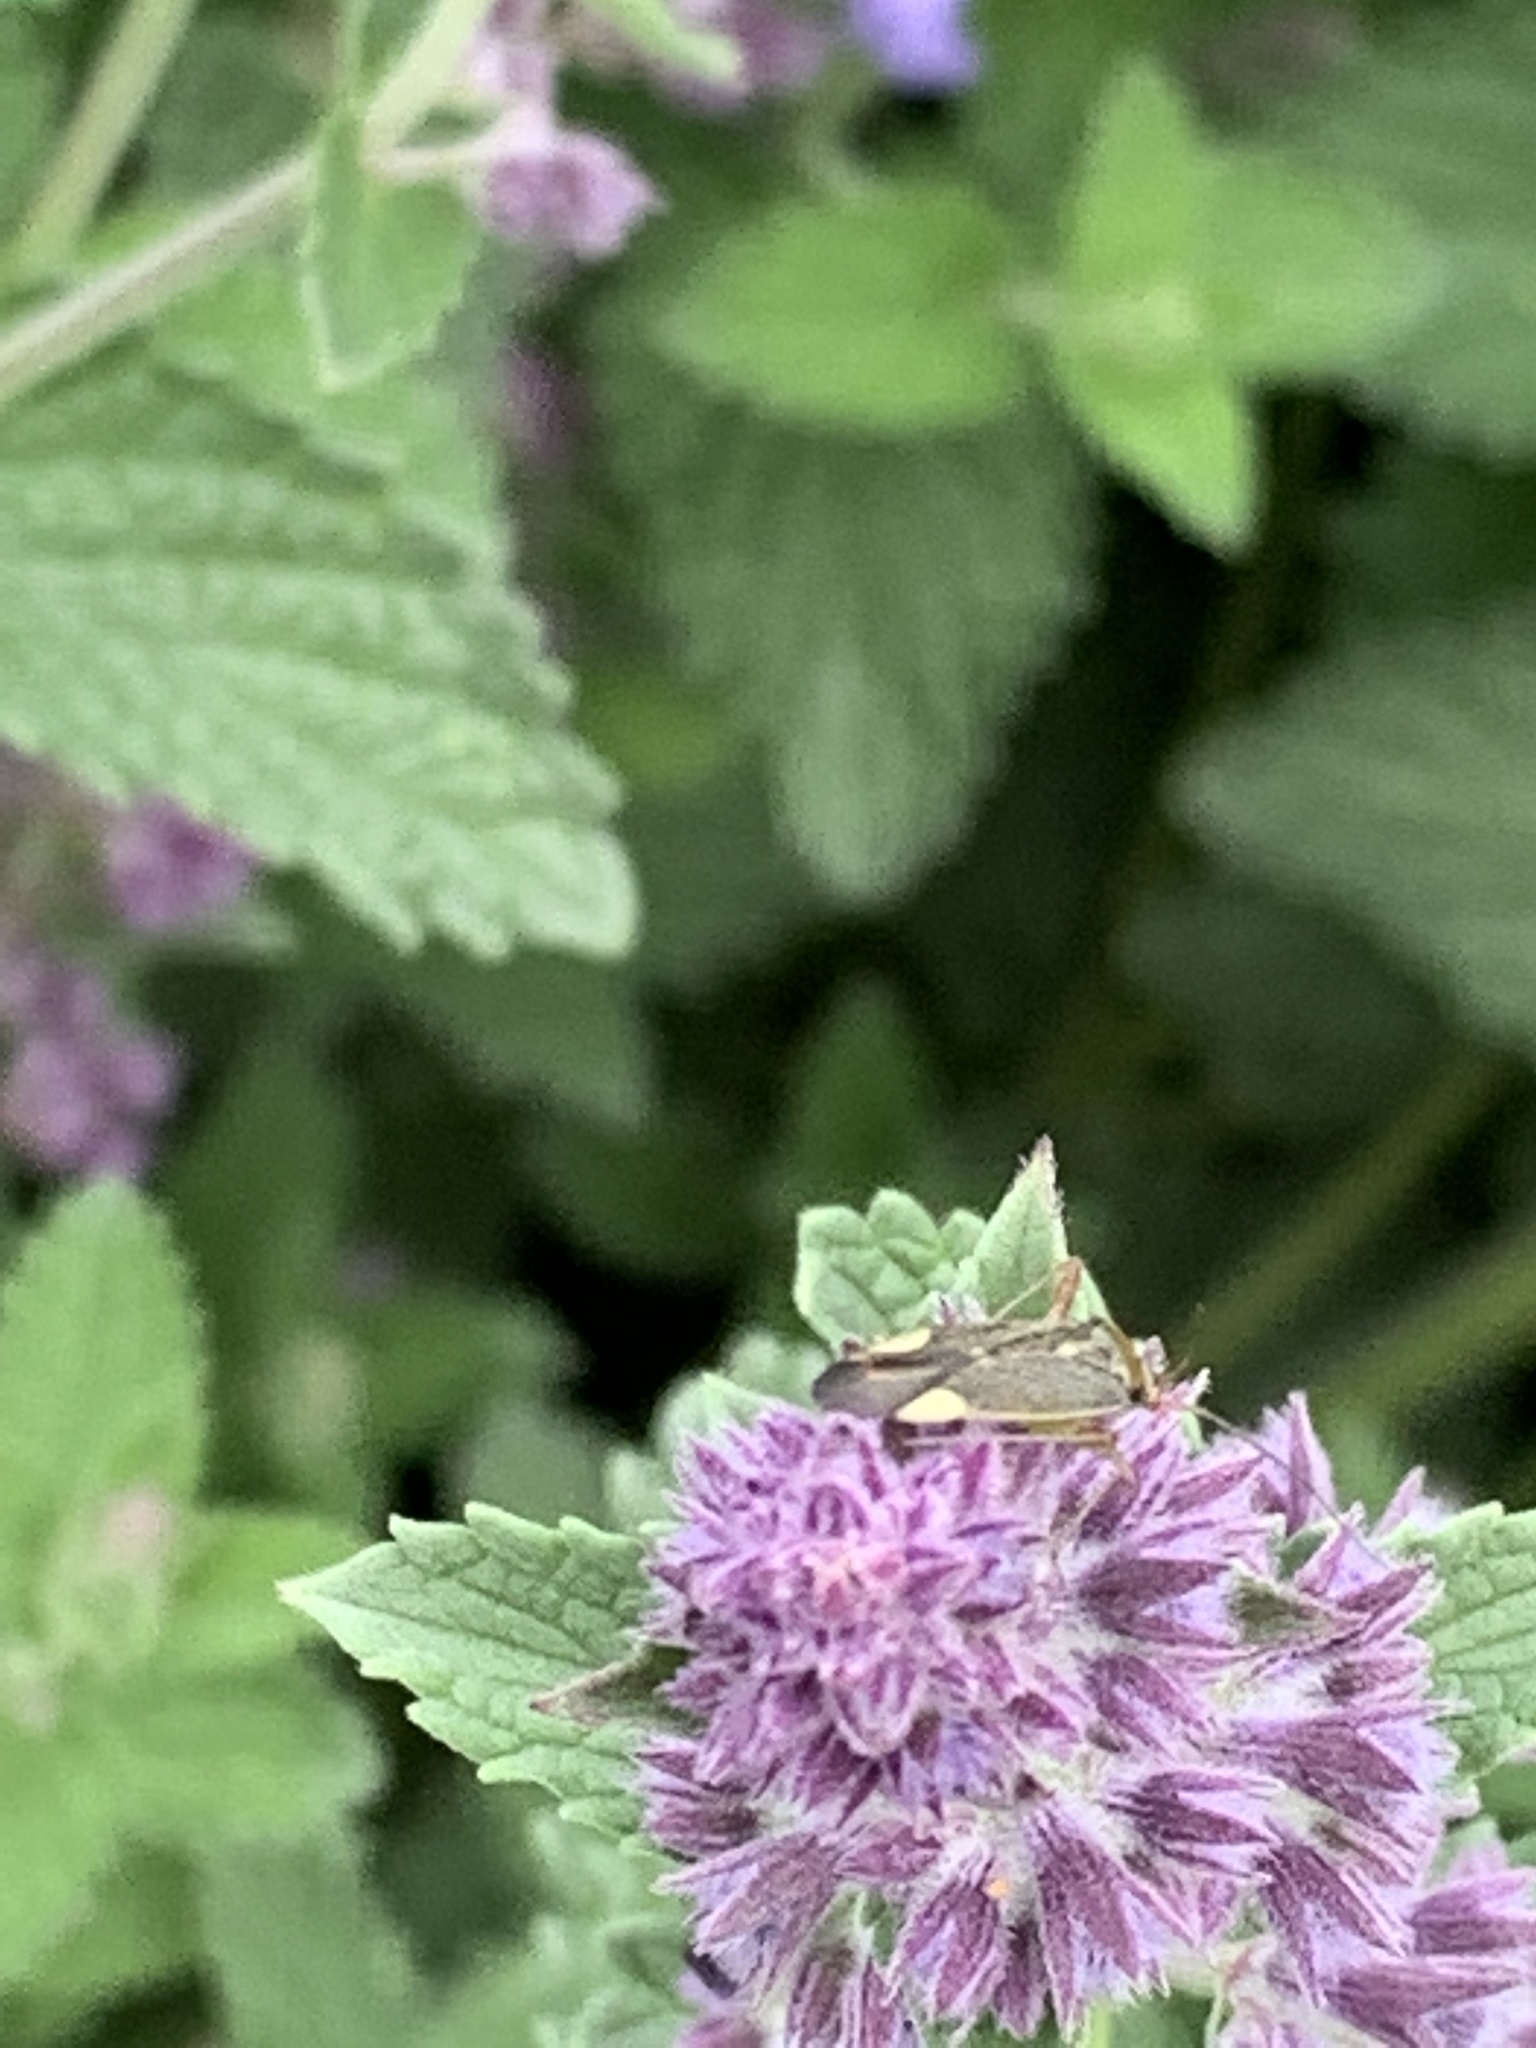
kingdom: Animalia
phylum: Arthropoda
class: Insecta
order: Hemiptera
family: Miridae
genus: Closterotomus
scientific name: Closterotomus trivialis
